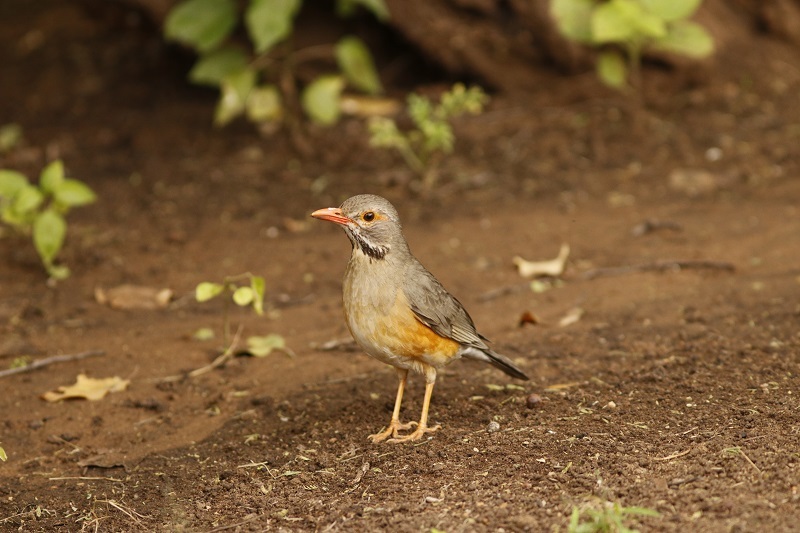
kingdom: Animalia
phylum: Chordata
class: Aves
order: Passeriformes
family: Turdidae
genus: Turdus
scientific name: Turdus libonyana
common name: Kurrichane thrush
